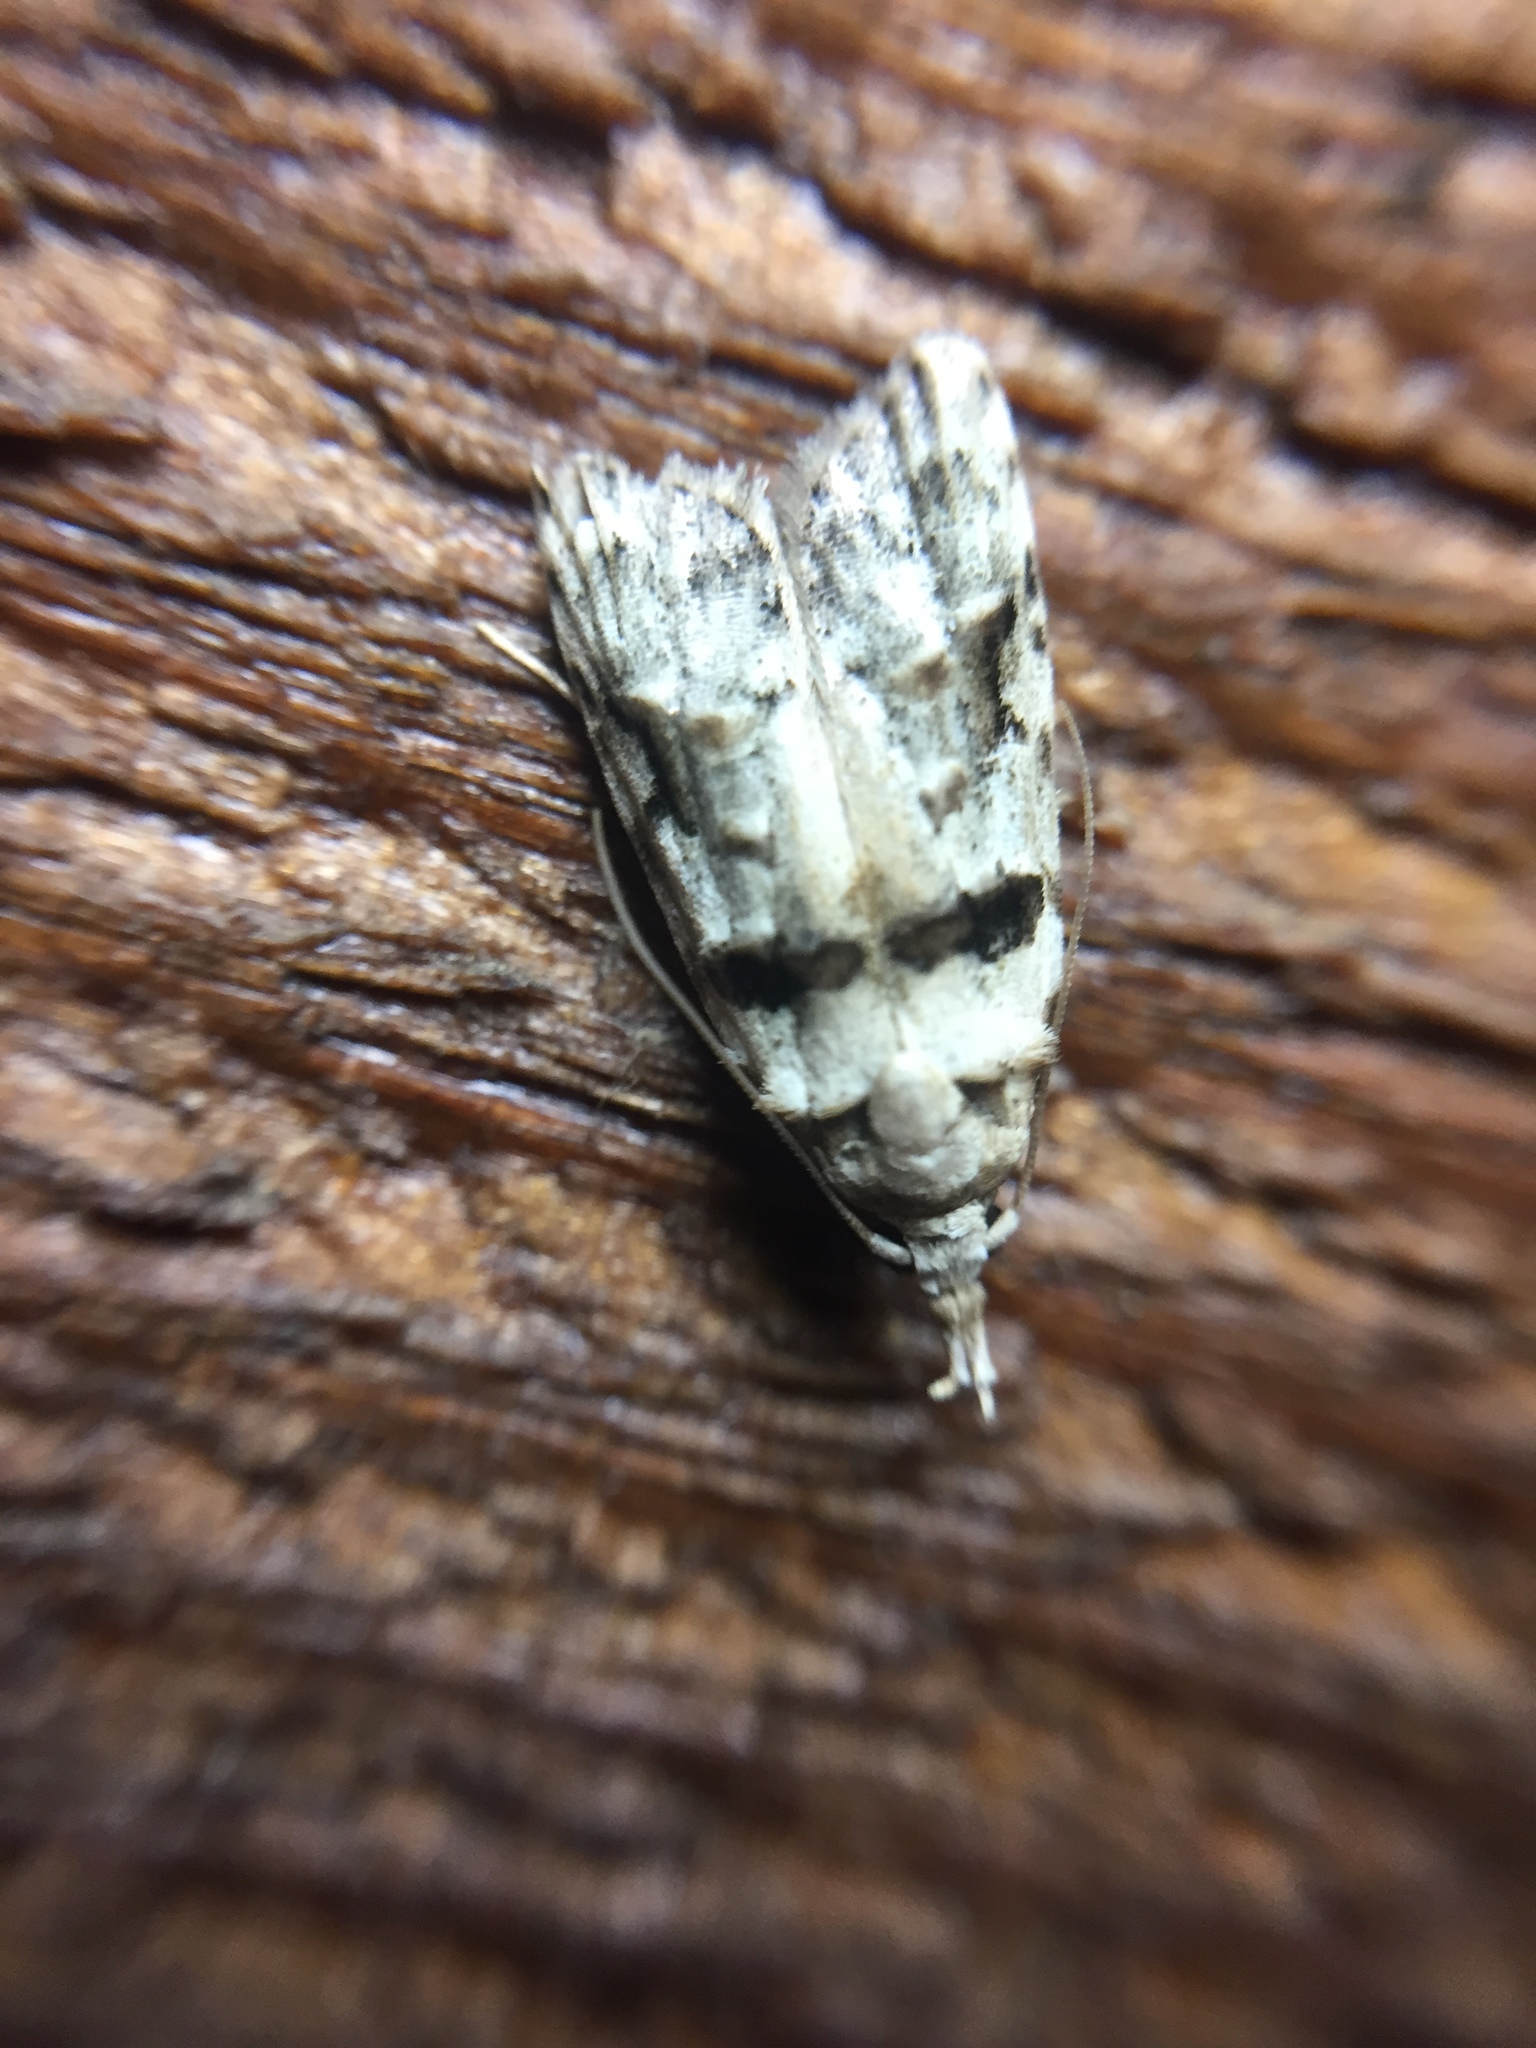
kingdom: Animalia
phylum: Arthropoda
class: Insecta
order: Lepidoptera
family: Carposinidae
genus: Coscinoptycha
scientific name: Coscinoptycha improbana
